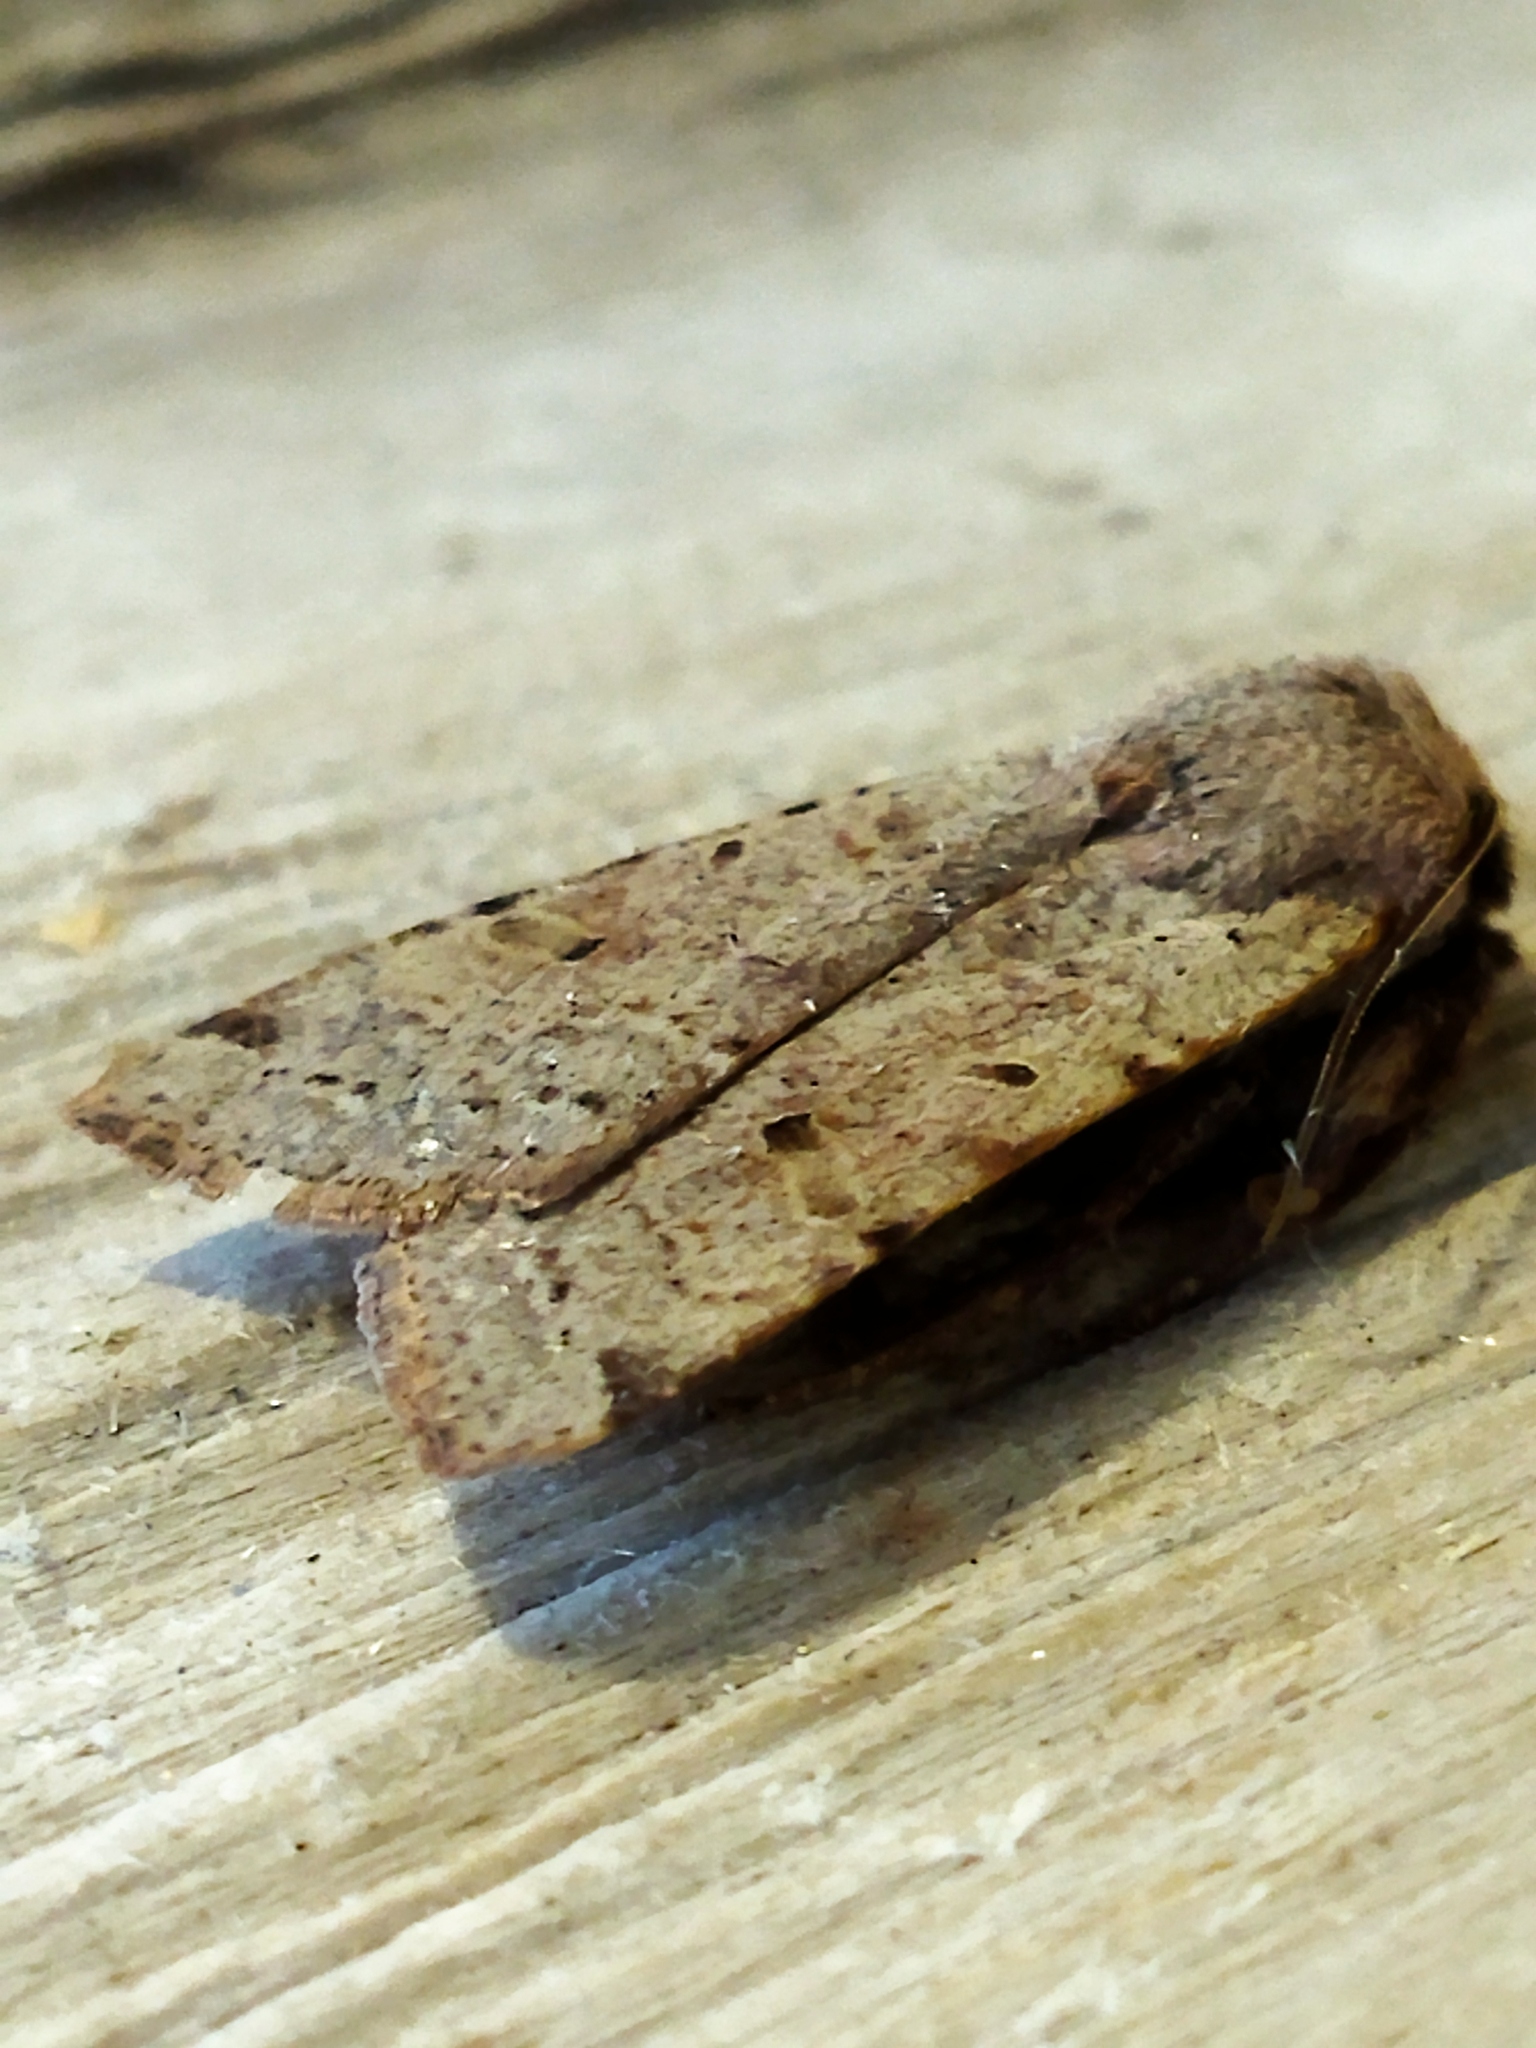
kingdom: Animalia
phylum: Arthropoda
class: Insecta
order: Lepidoptera
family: Noctuidae
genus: Agrochola
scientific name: Agrochola lychnidis
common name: Beaded chestnut
